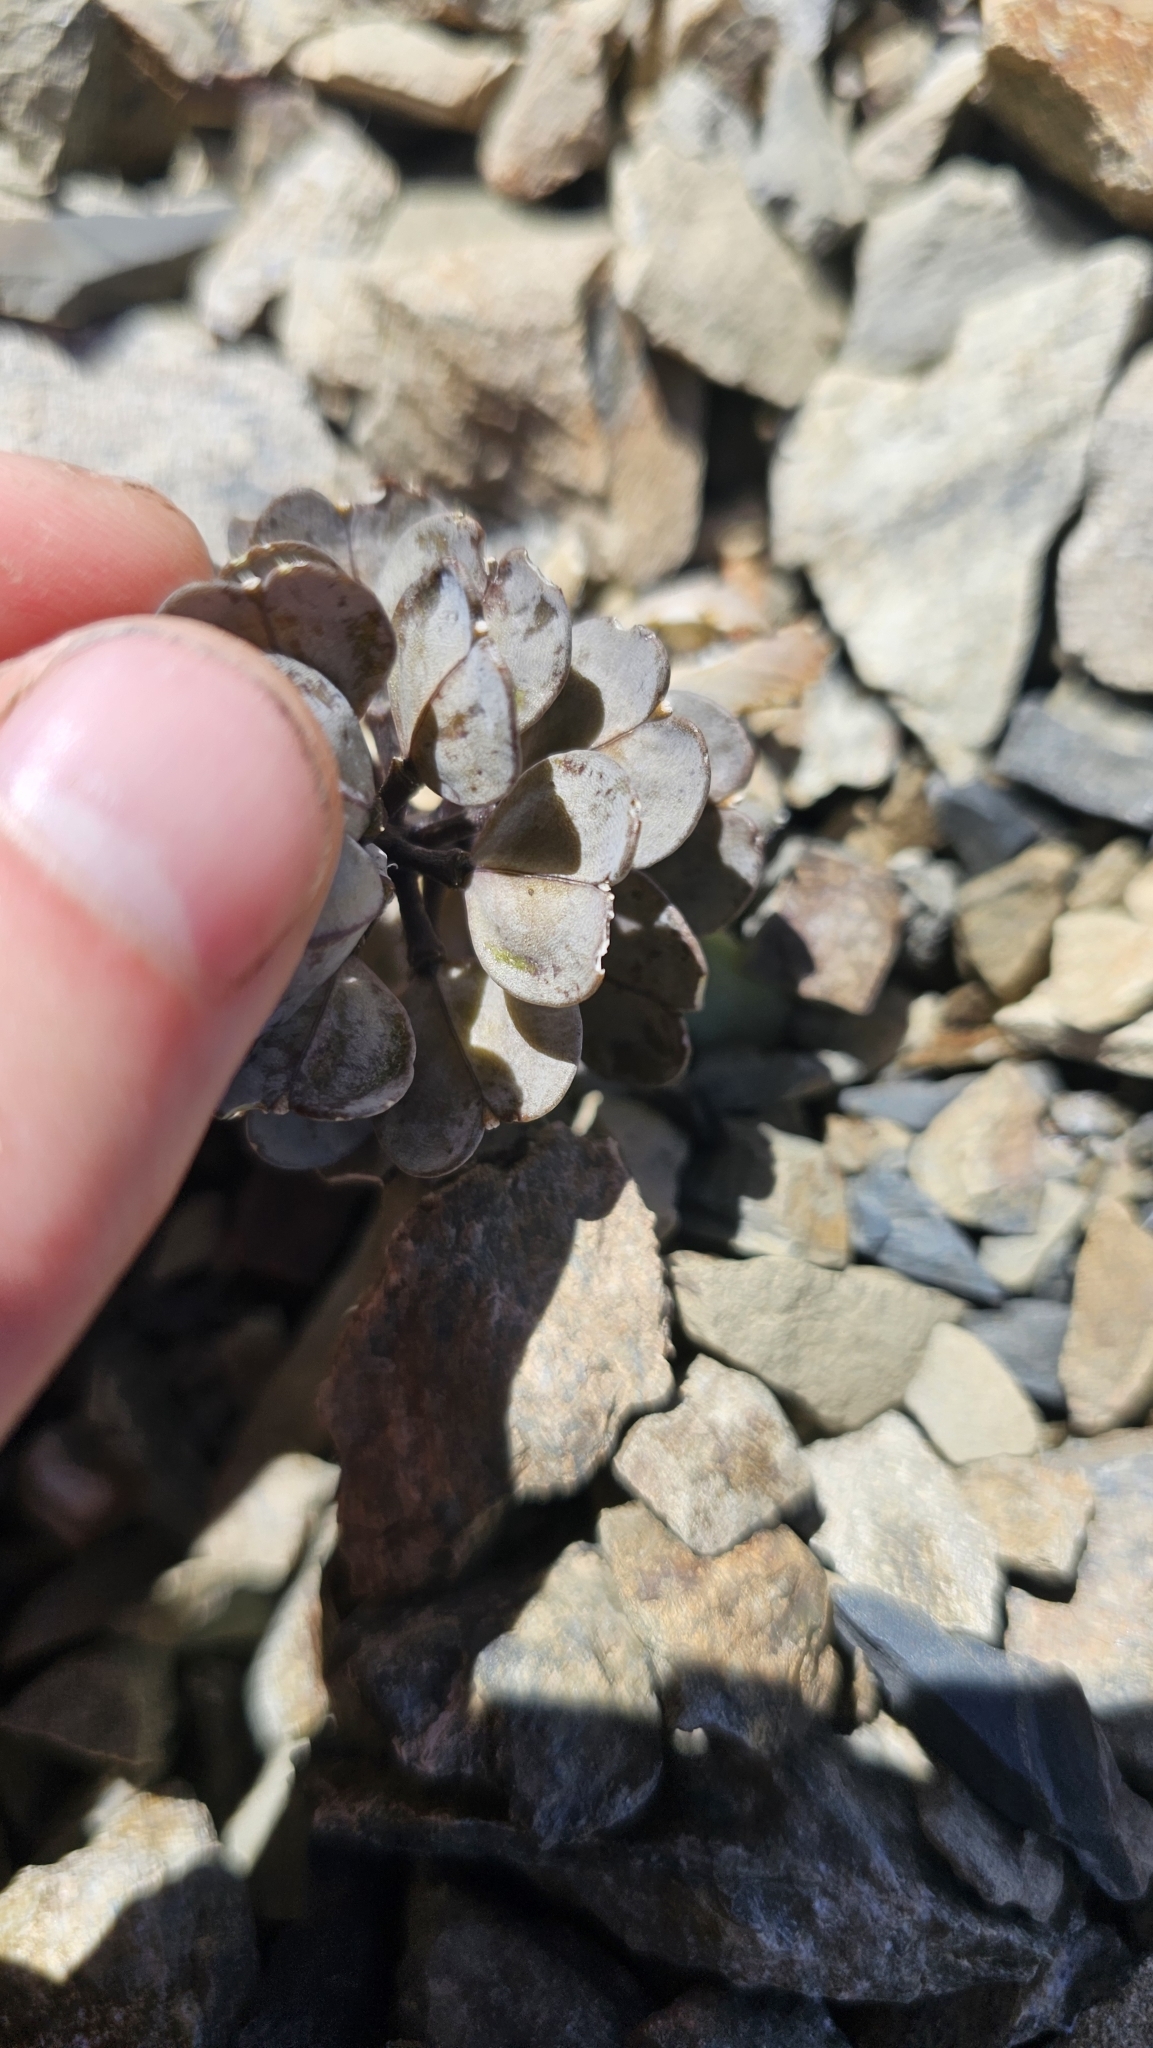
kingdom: Plantae
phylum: Tracheophyta
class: Magnoliopsida
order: Brassicales
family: Brassicaceae
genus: Notothlaspi
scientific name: Notothlaspi rosulatum
